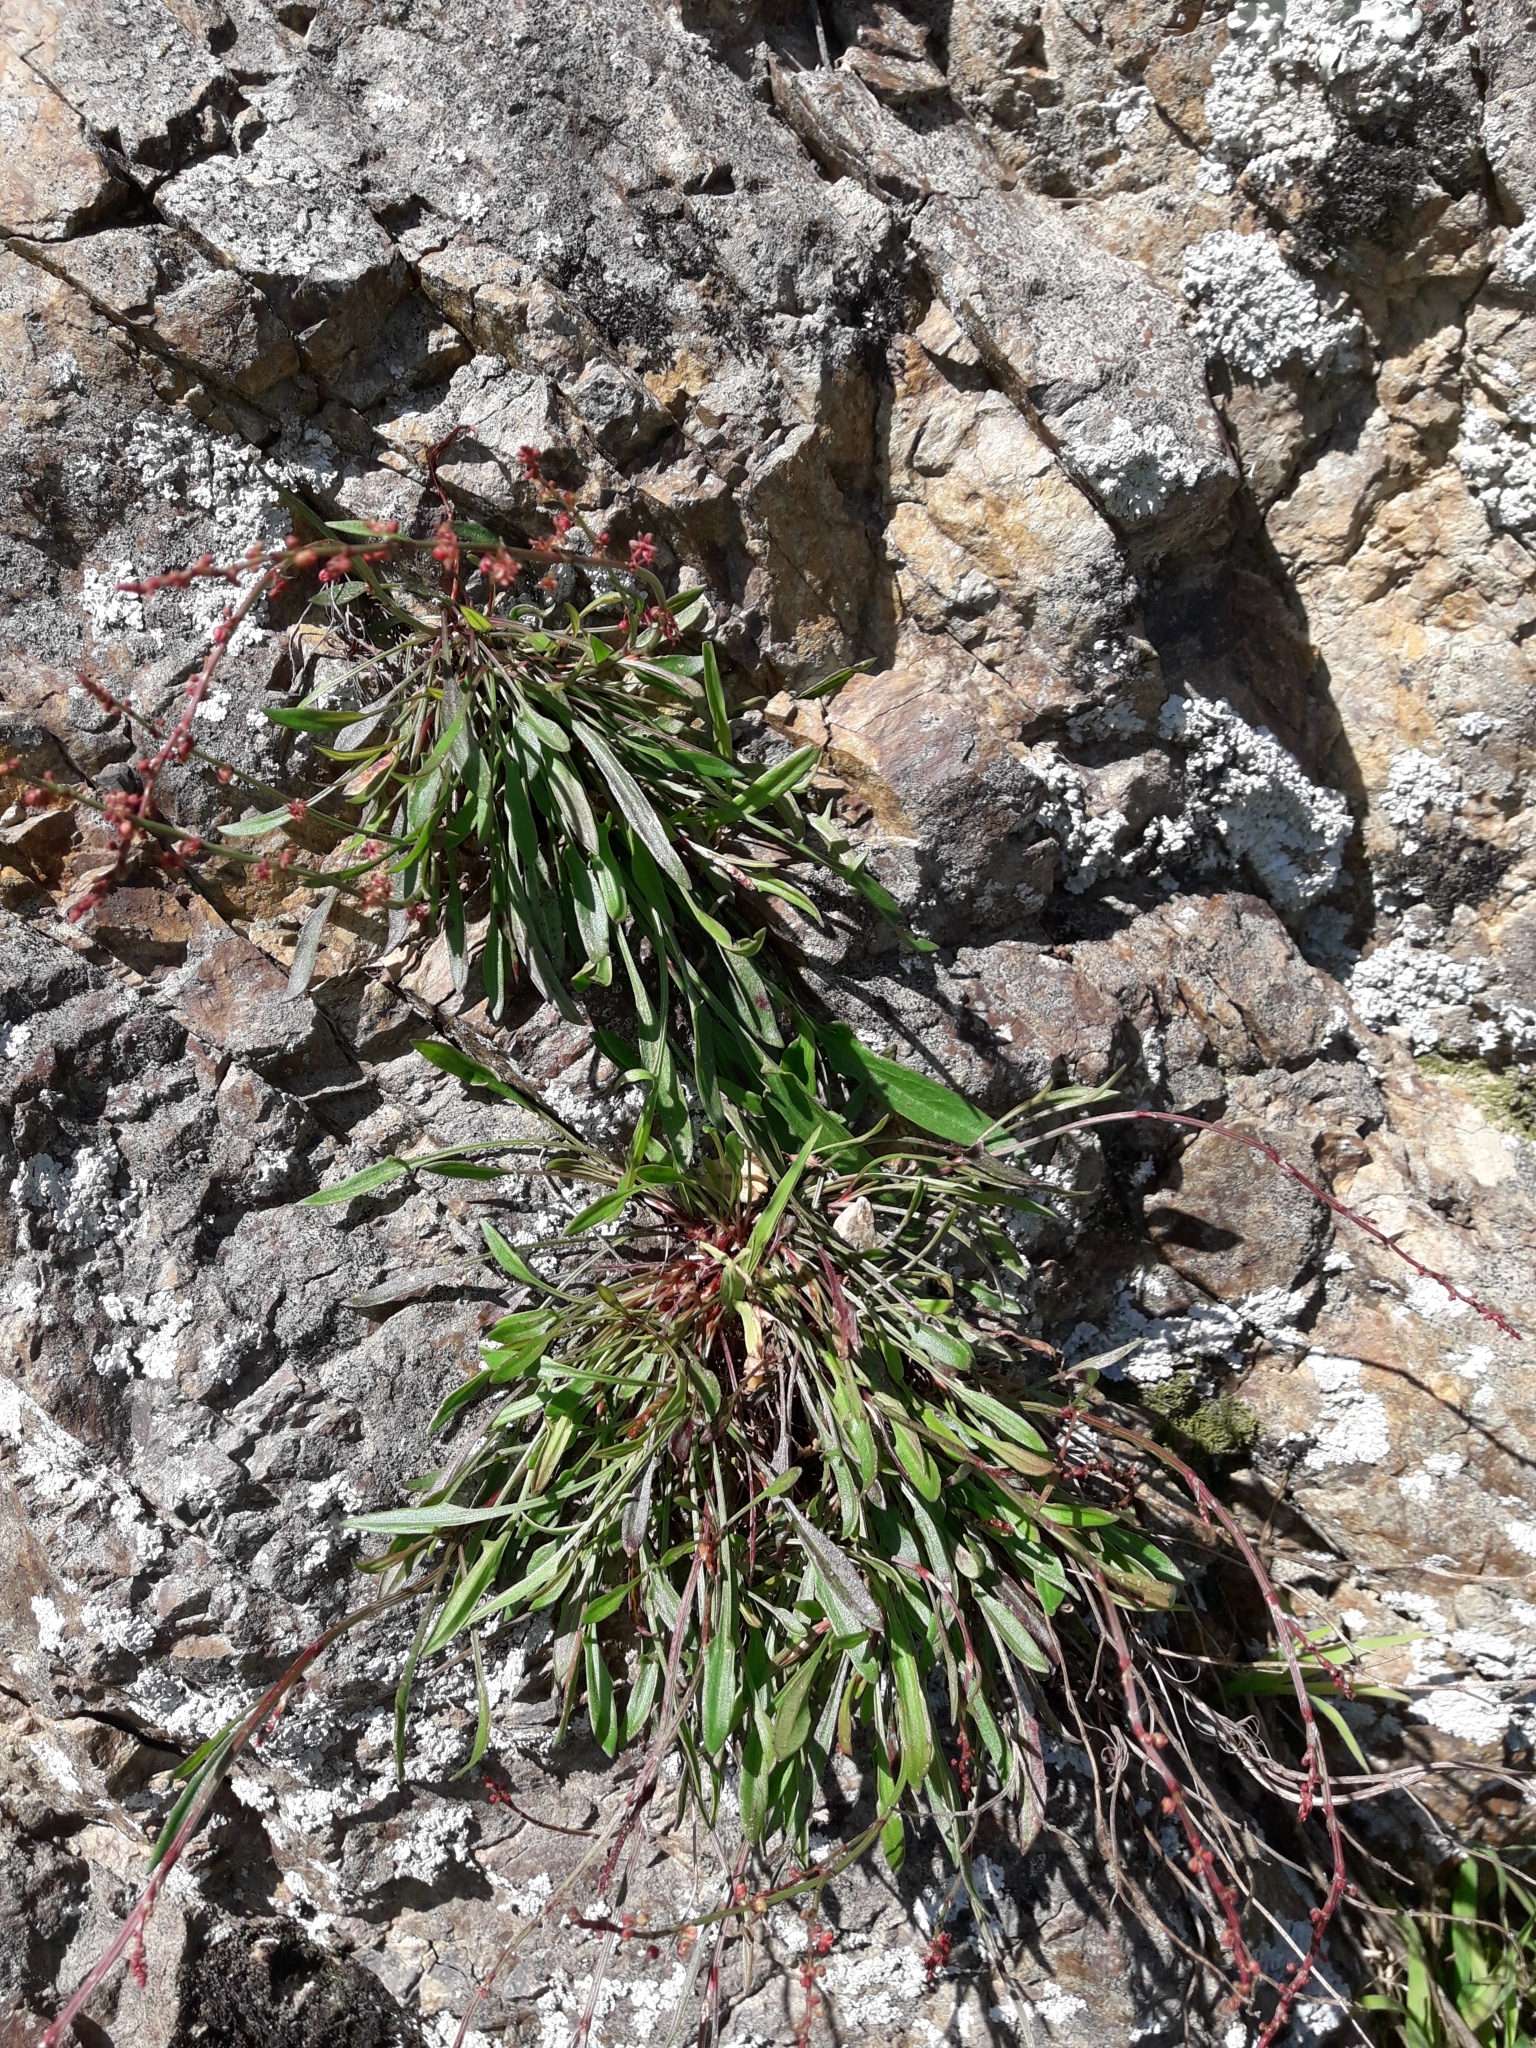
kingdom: Plantae
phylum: Tracheophyta
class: Magnoliopsida
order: Caryophyllales
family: Polygonaceae
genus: Rumex
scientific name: Rumex acetosella
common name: Common sheep sorrel
